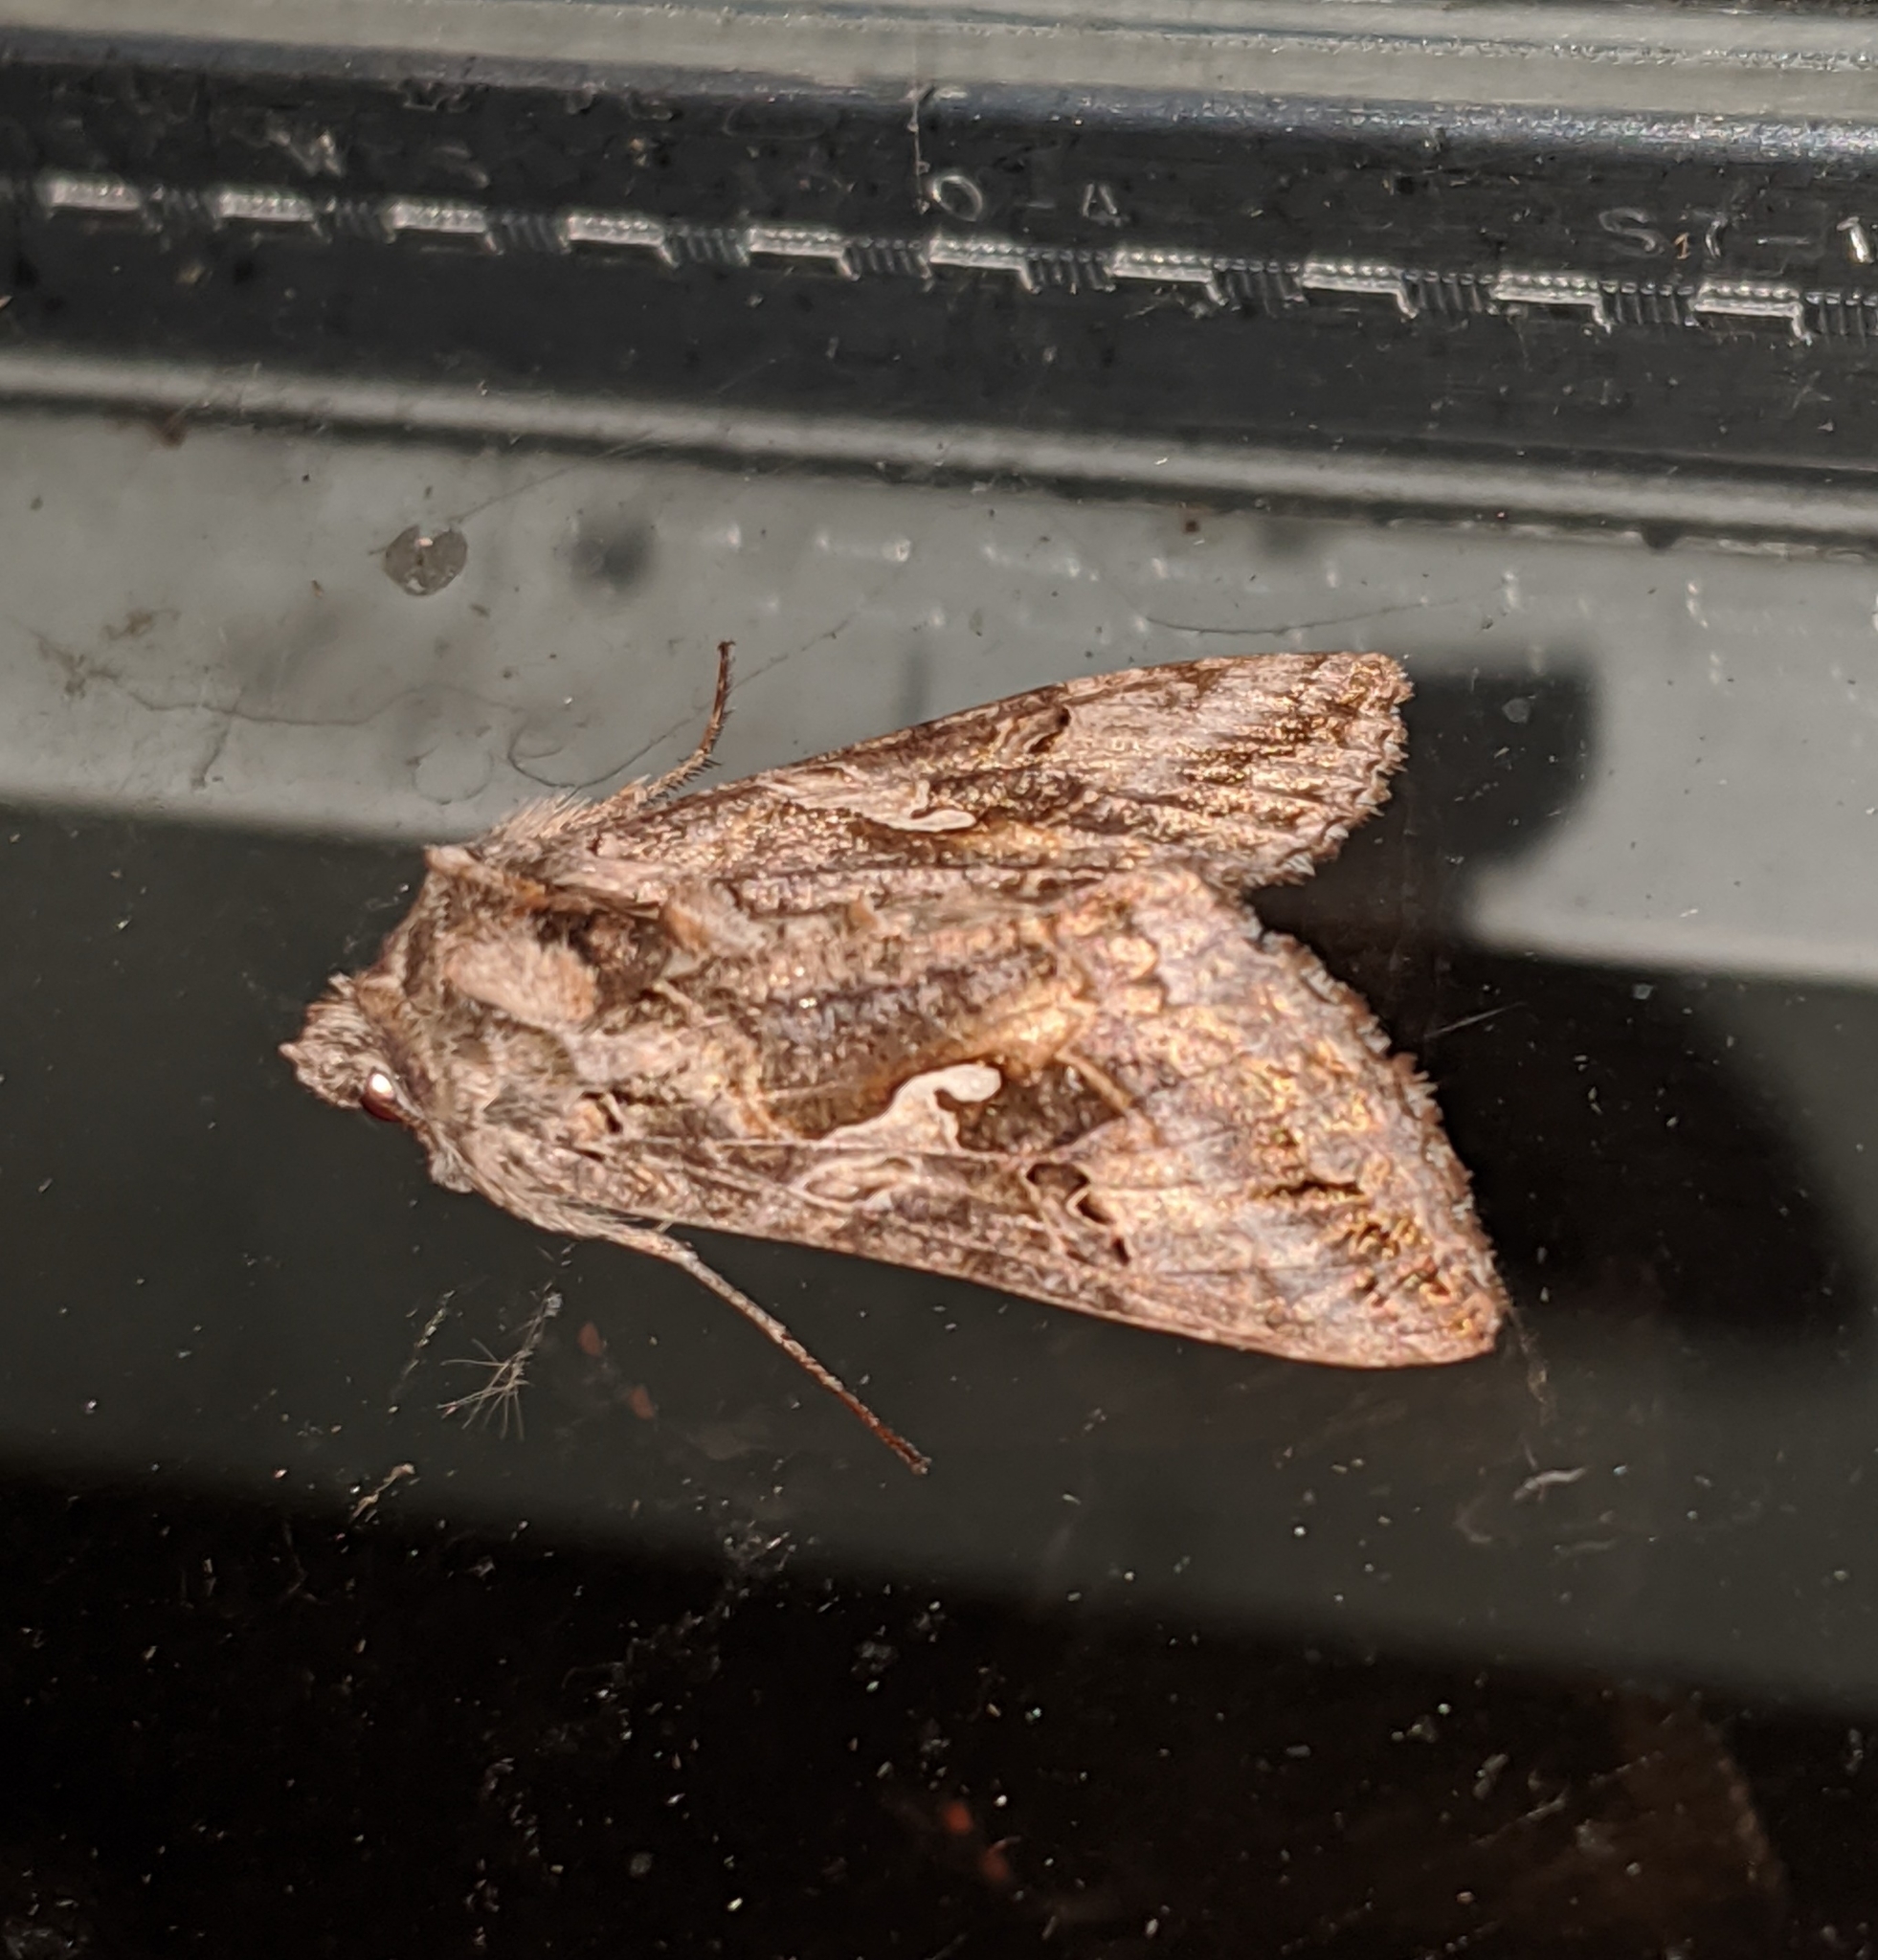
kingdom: Animalia
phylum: Arthropoda
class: Insecta
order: Lepidoptera
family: Noctuidae
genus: Autographa
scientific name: Autographa californica
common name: Alfalfa looper
